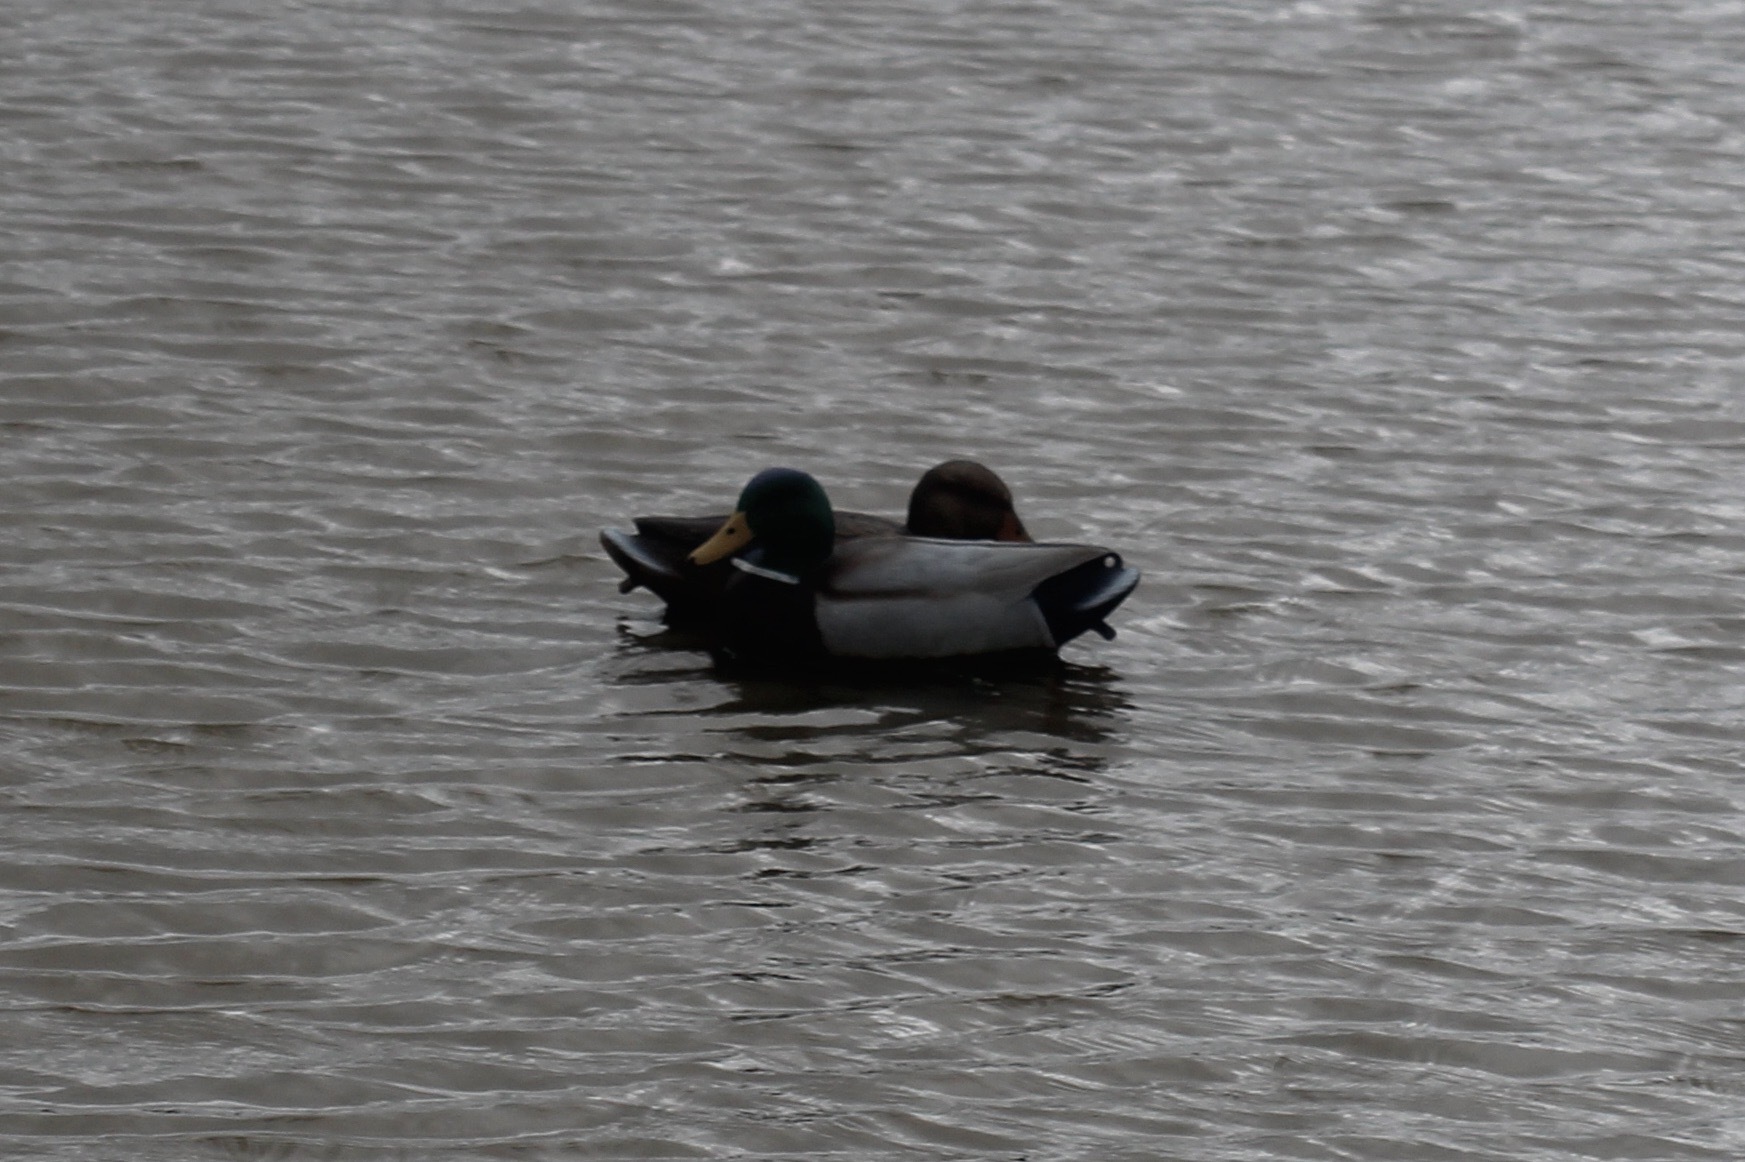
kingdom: Animalia
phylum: Chordata
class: Aves
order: Anseriformes
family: Anatidae
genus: Anas
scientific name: Anas platyrhynchos
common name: Mallard
